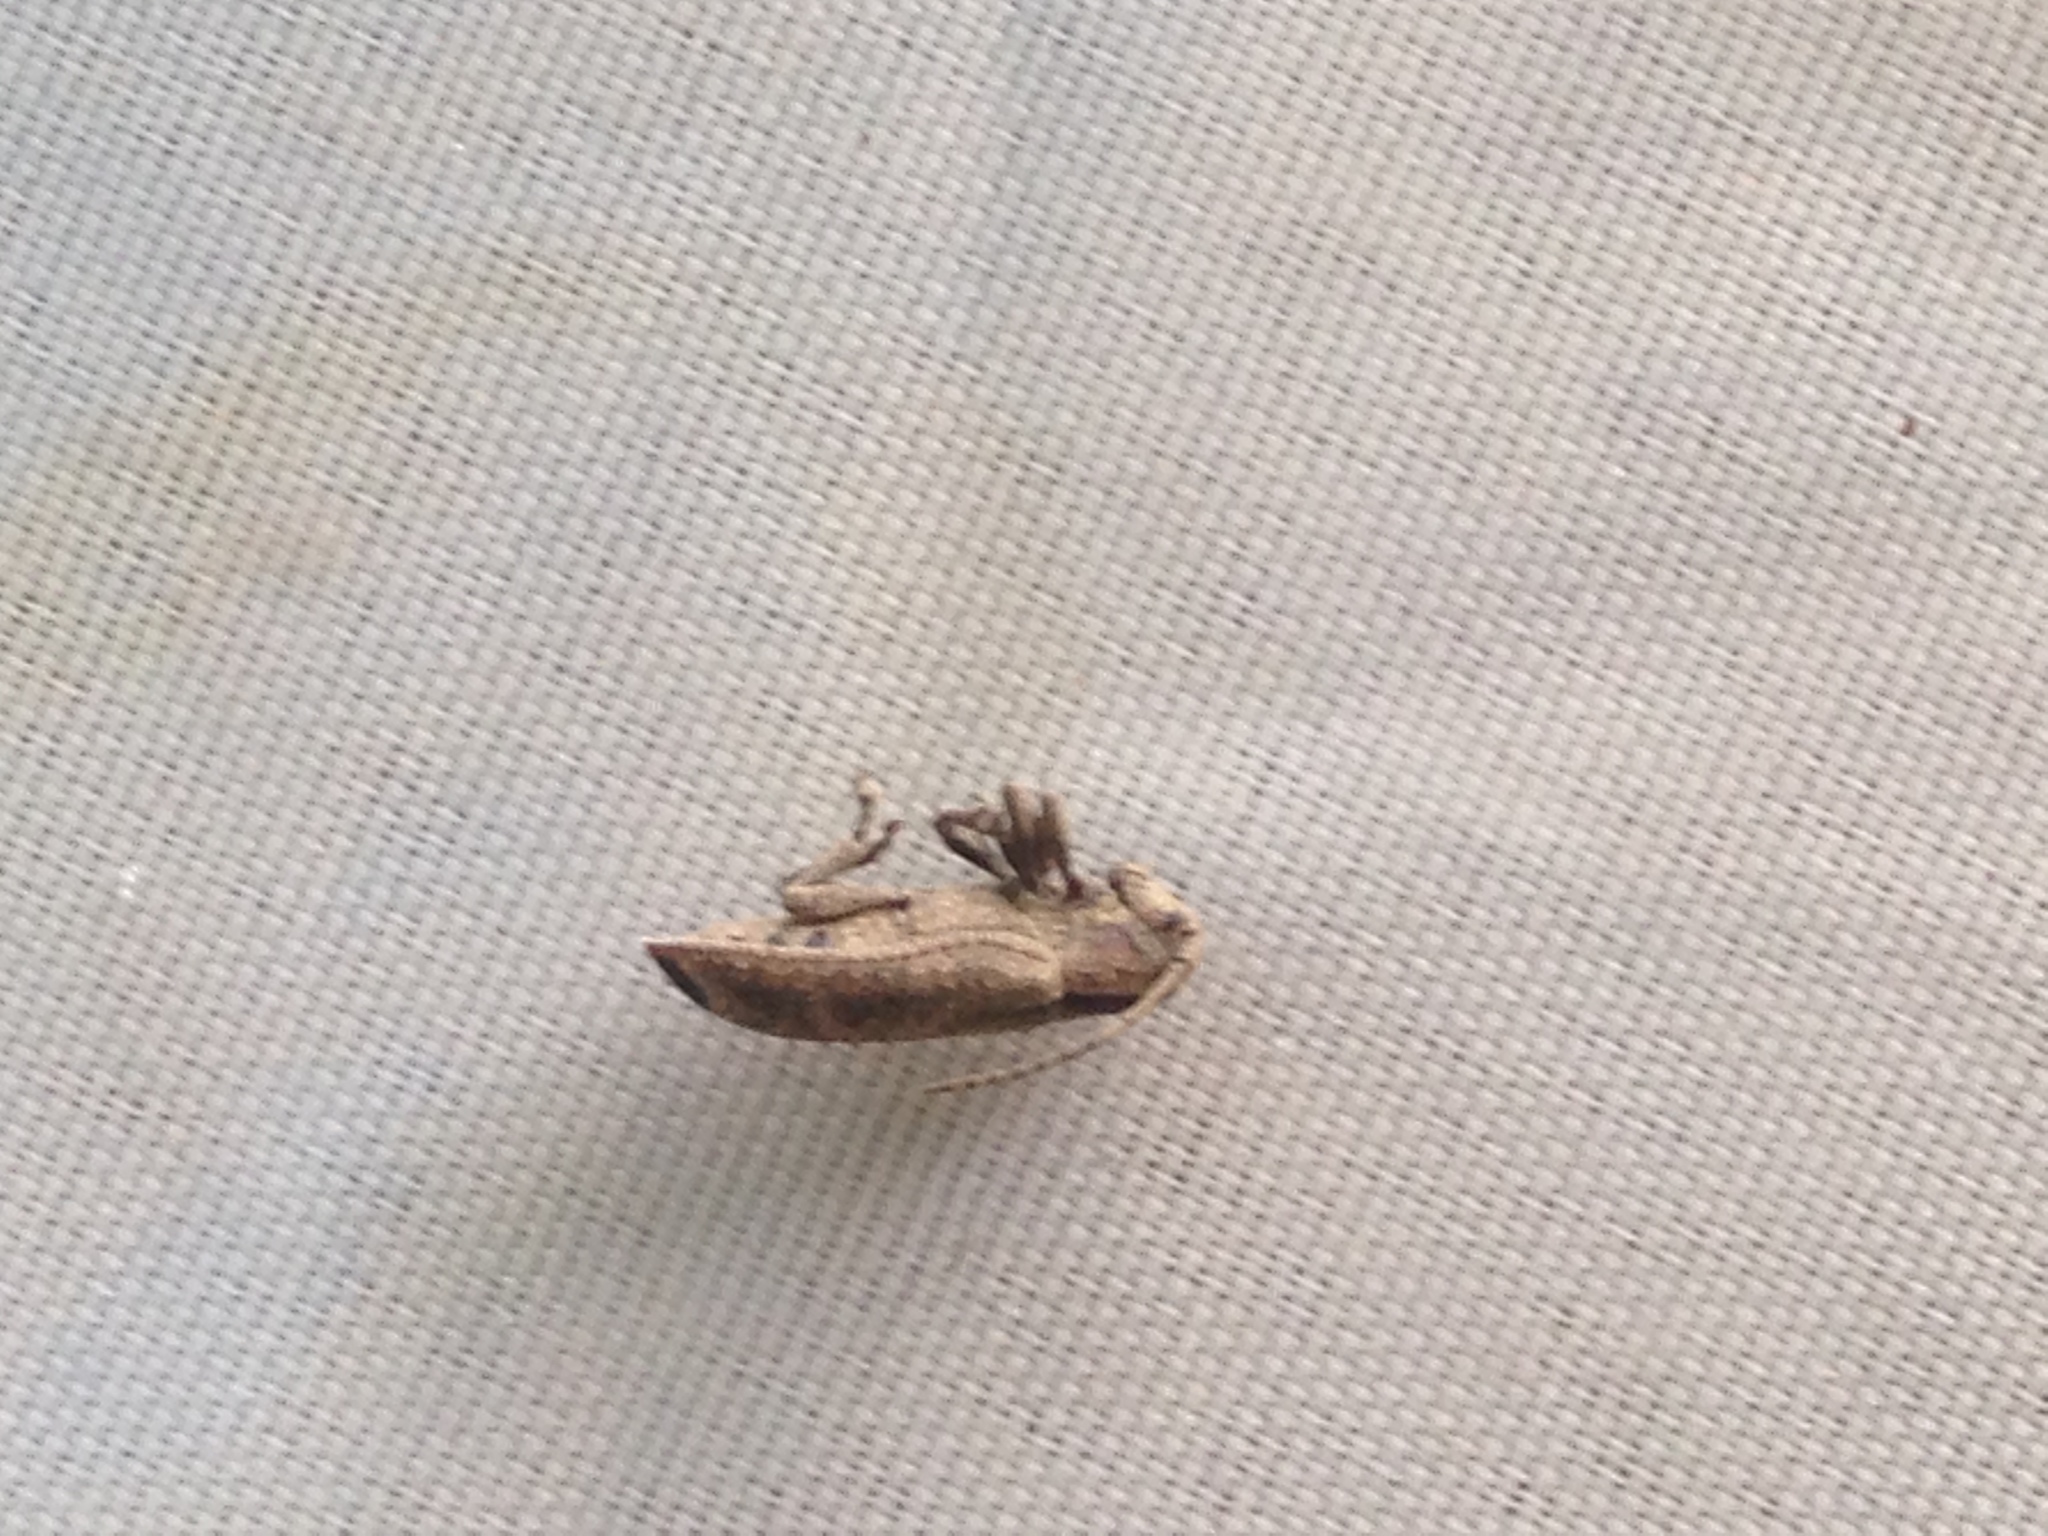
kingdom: Animalia
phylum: Arthropoda
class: Insecta
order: Coleoptera
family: Cerambycidae
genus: Adetus
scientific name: Adetus analis
